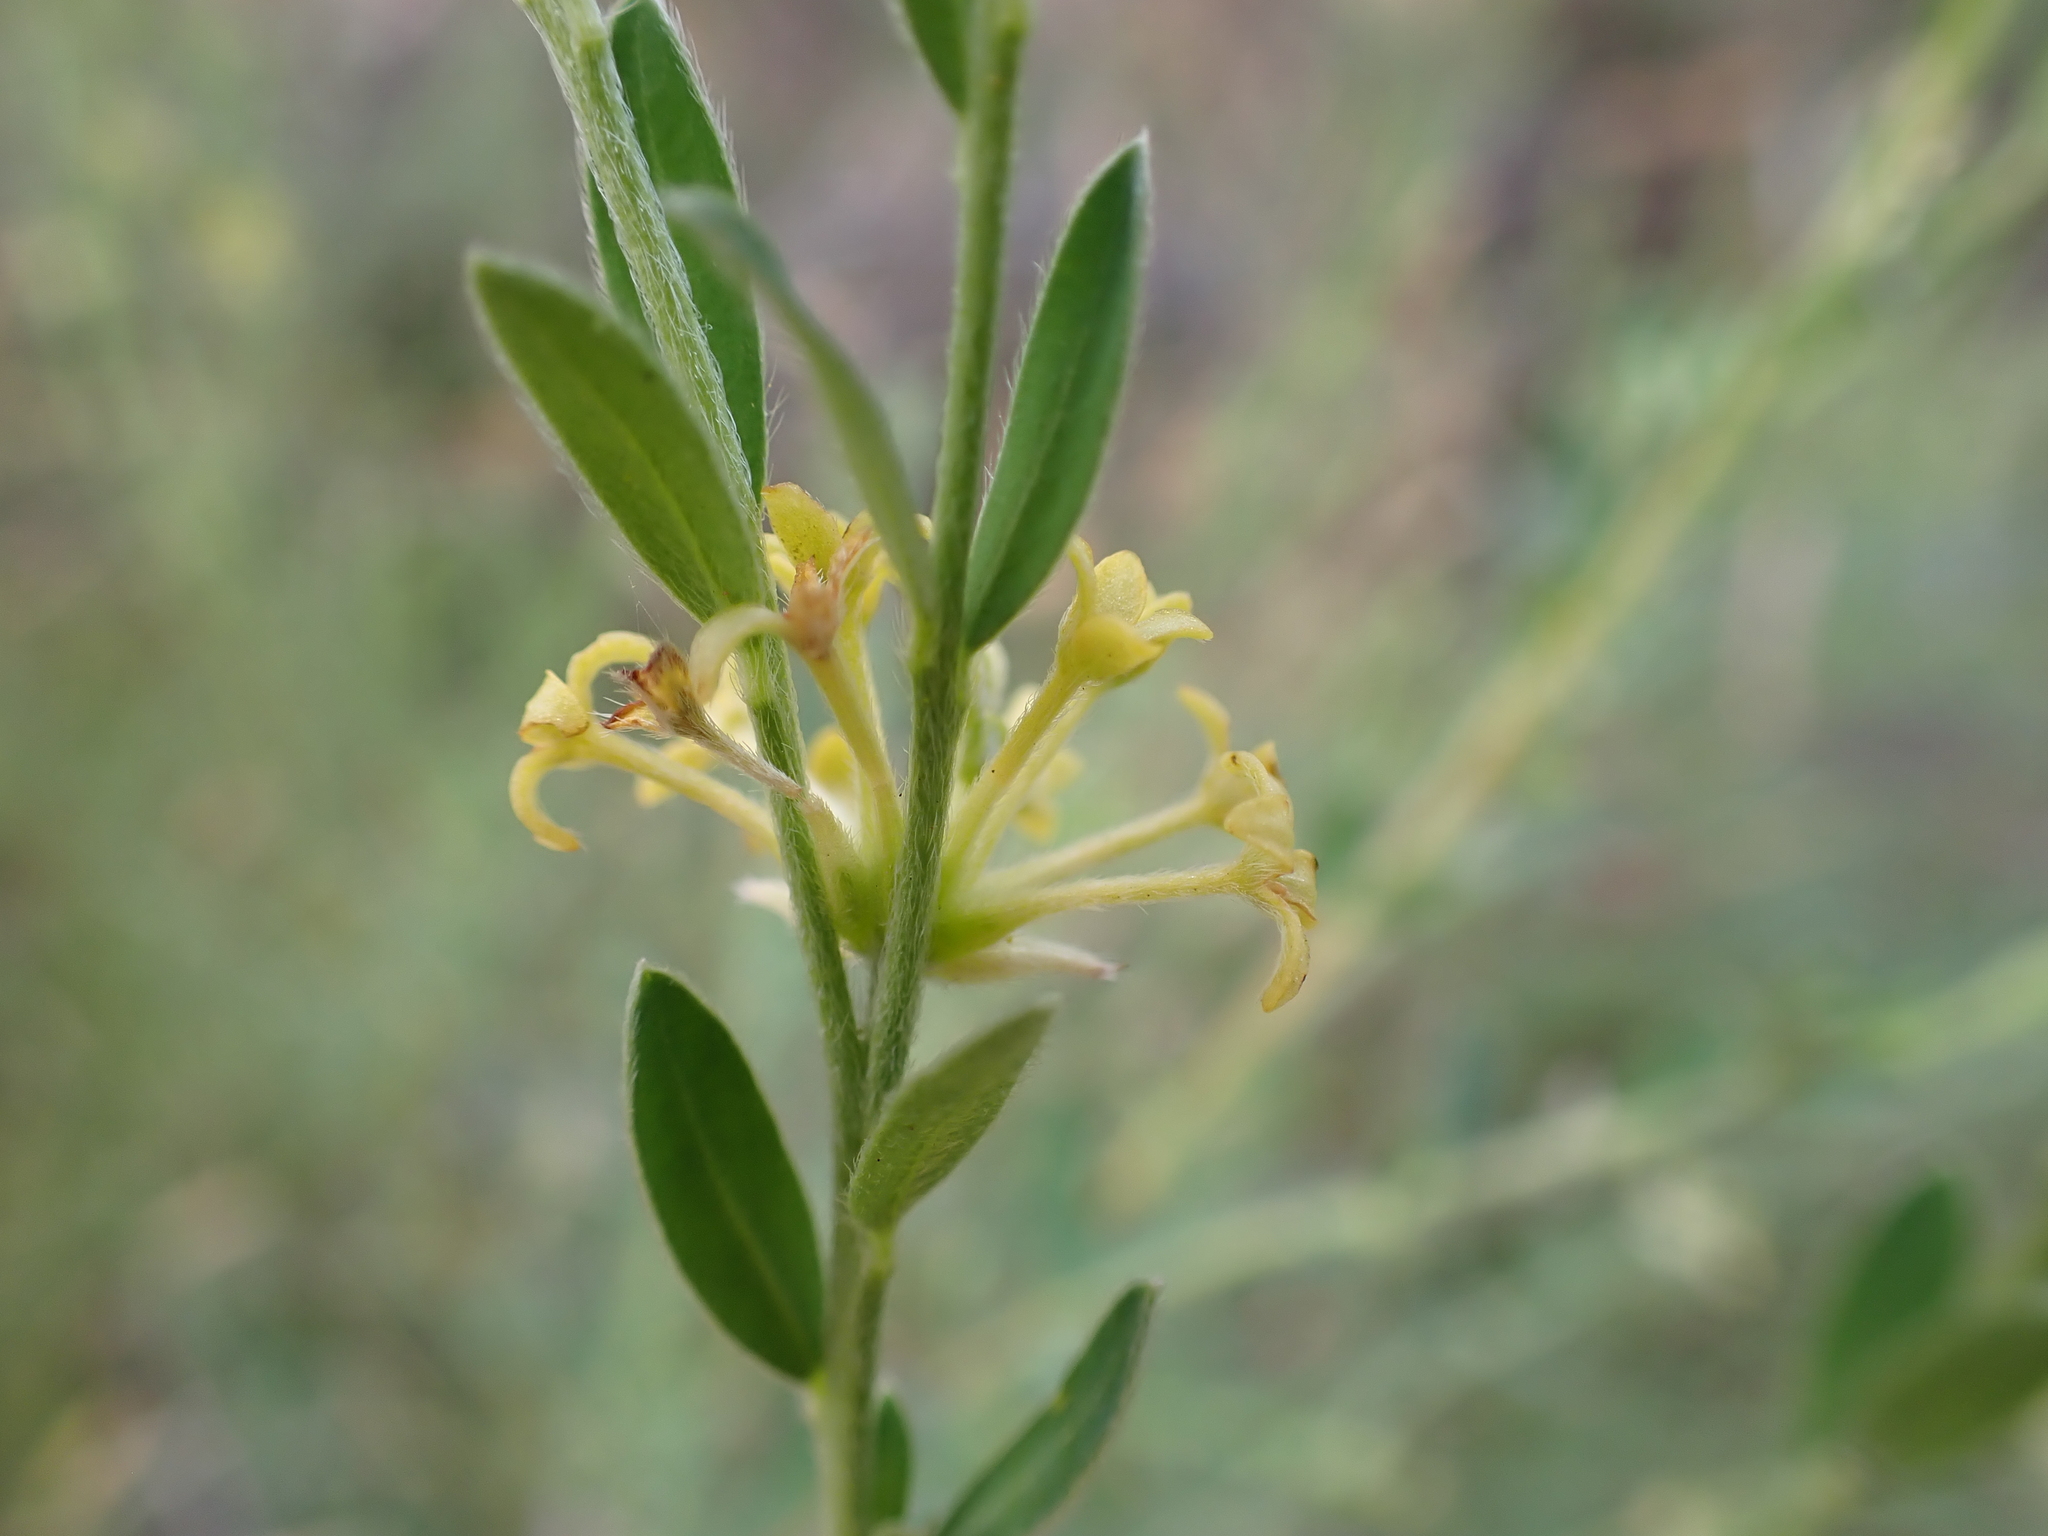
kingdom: Plantae
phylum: Tracheophyta
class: Magnoliopsida
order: Malvales
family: Thymelaeaceae
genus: Pimelea
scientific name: Pimelea curviflora
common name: Curved riceflower
